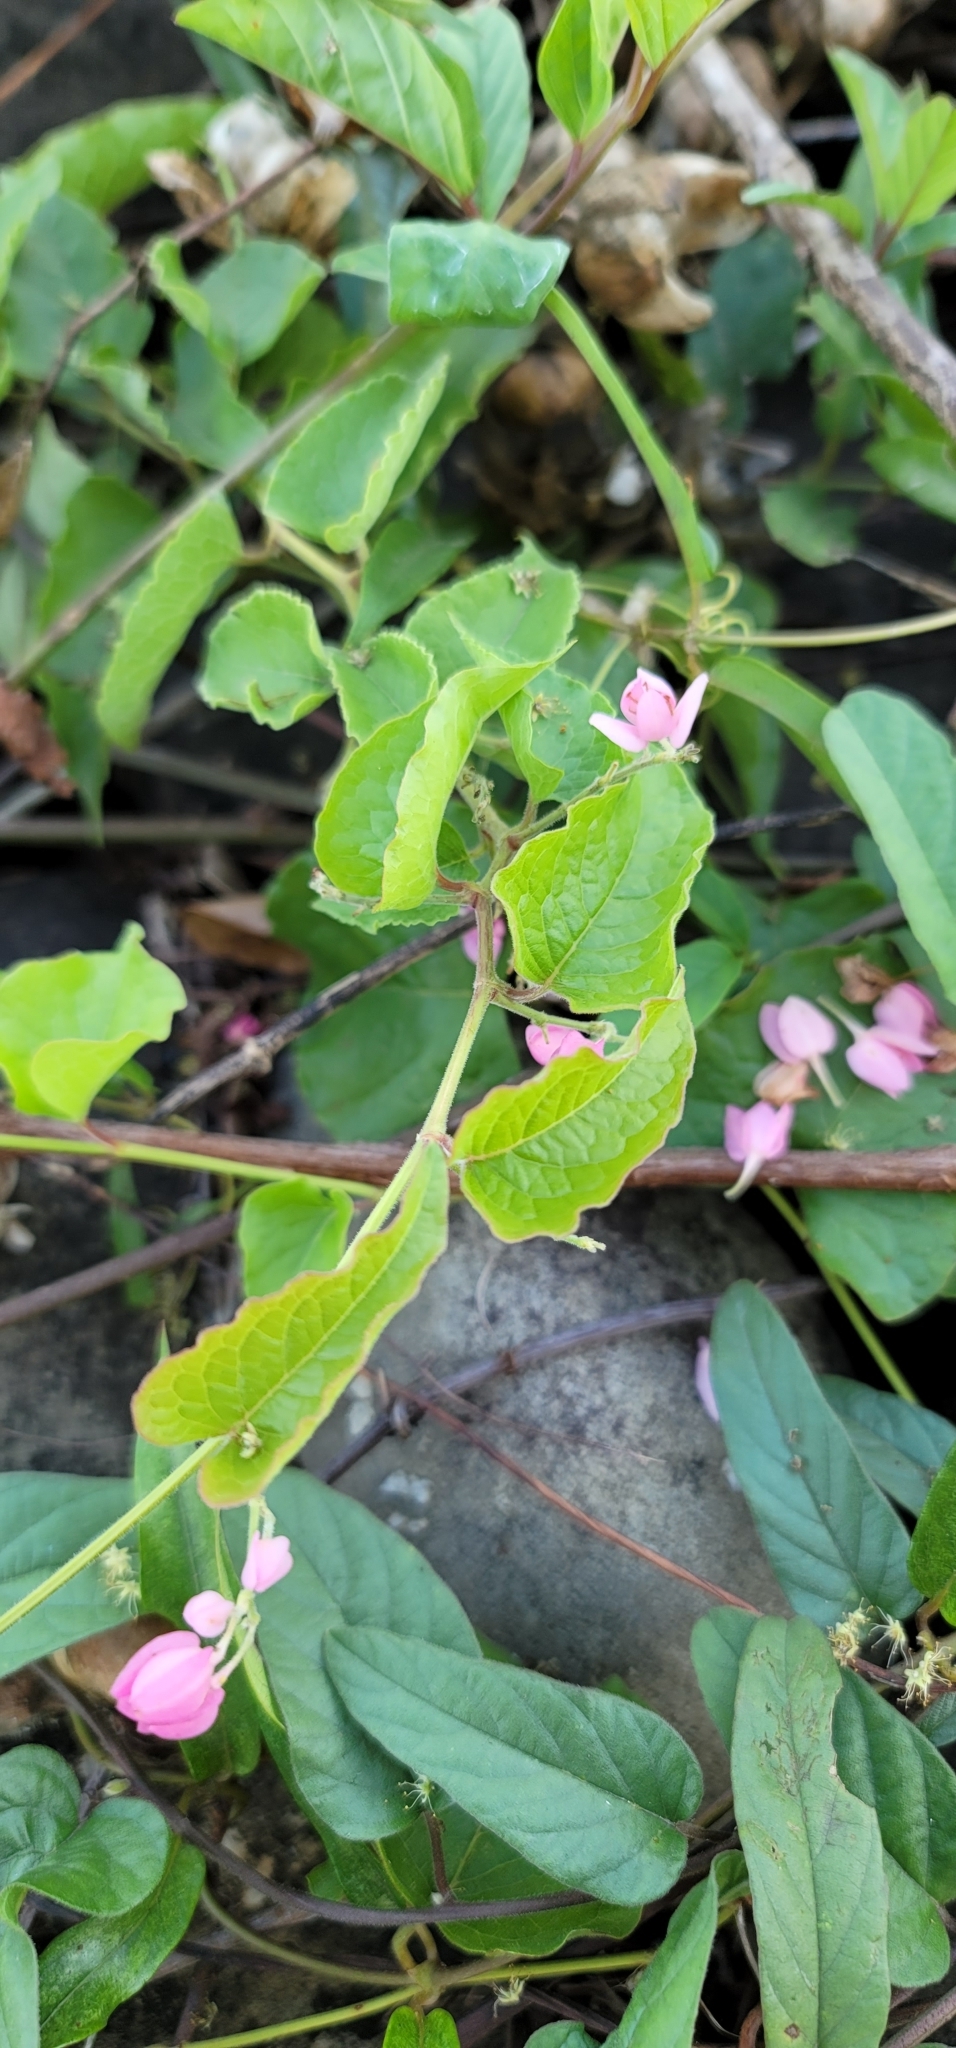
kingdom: Plantae
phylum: Tracheophyta
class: Magnoliopsida
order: Caryophyllales
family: Polygonaceae
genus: Antigonon
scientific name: Antigonon leptopus
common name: Coral vine
